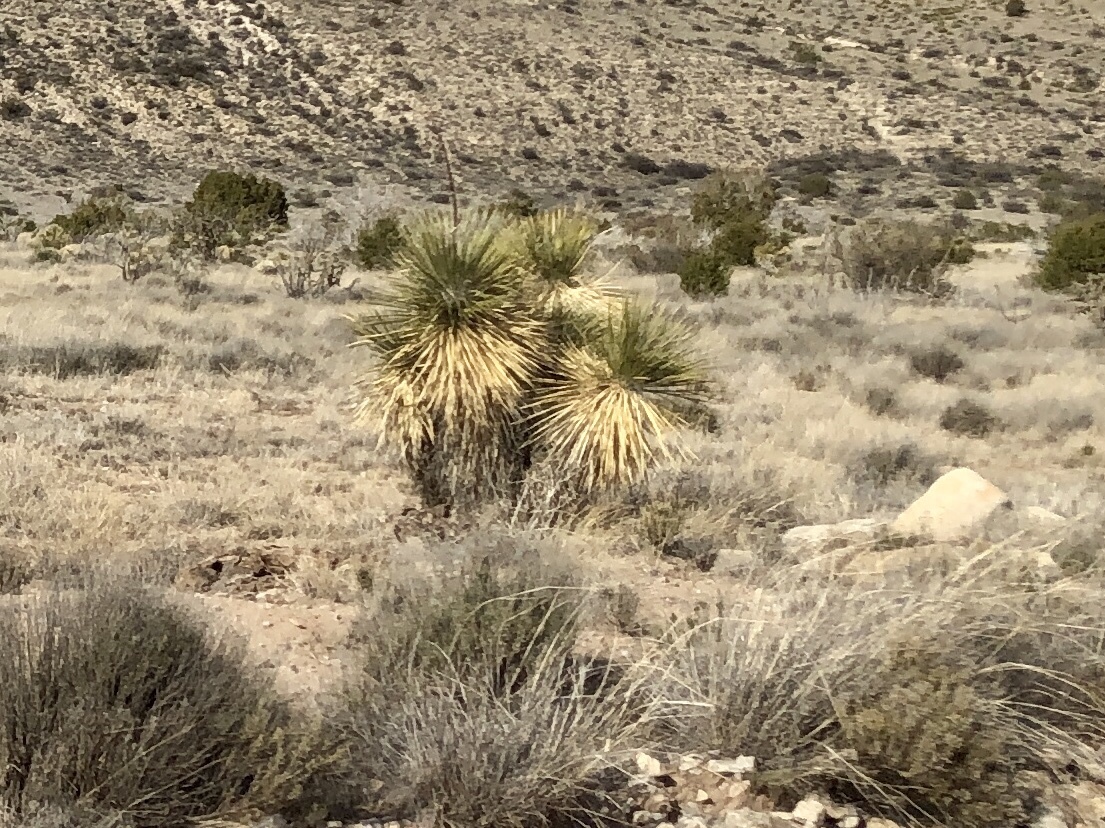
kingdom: Plantae
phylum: Tracheophyta
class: Liliopsida
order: Asparagales
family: Asparagaceae
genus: Yucca
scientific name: Yucca elata
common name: Palmella
